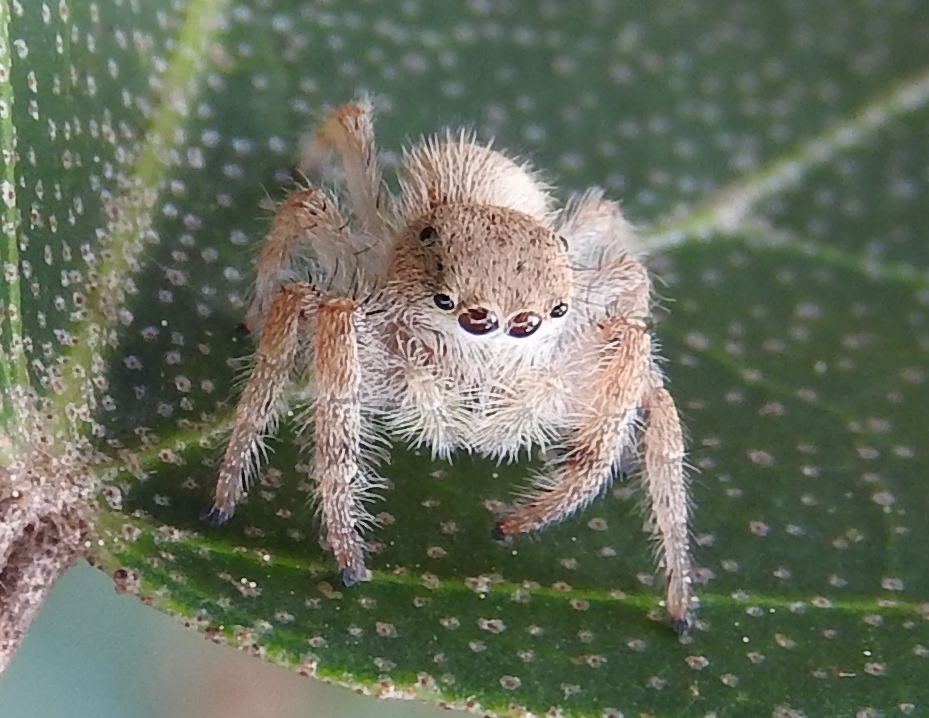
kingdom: Animalia
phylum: Arthropoda
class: Arachnida
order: Araneae
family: Salticidae
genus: Paraphidippus
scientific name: Paraphidippus fartilis
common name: Jumping spiders
